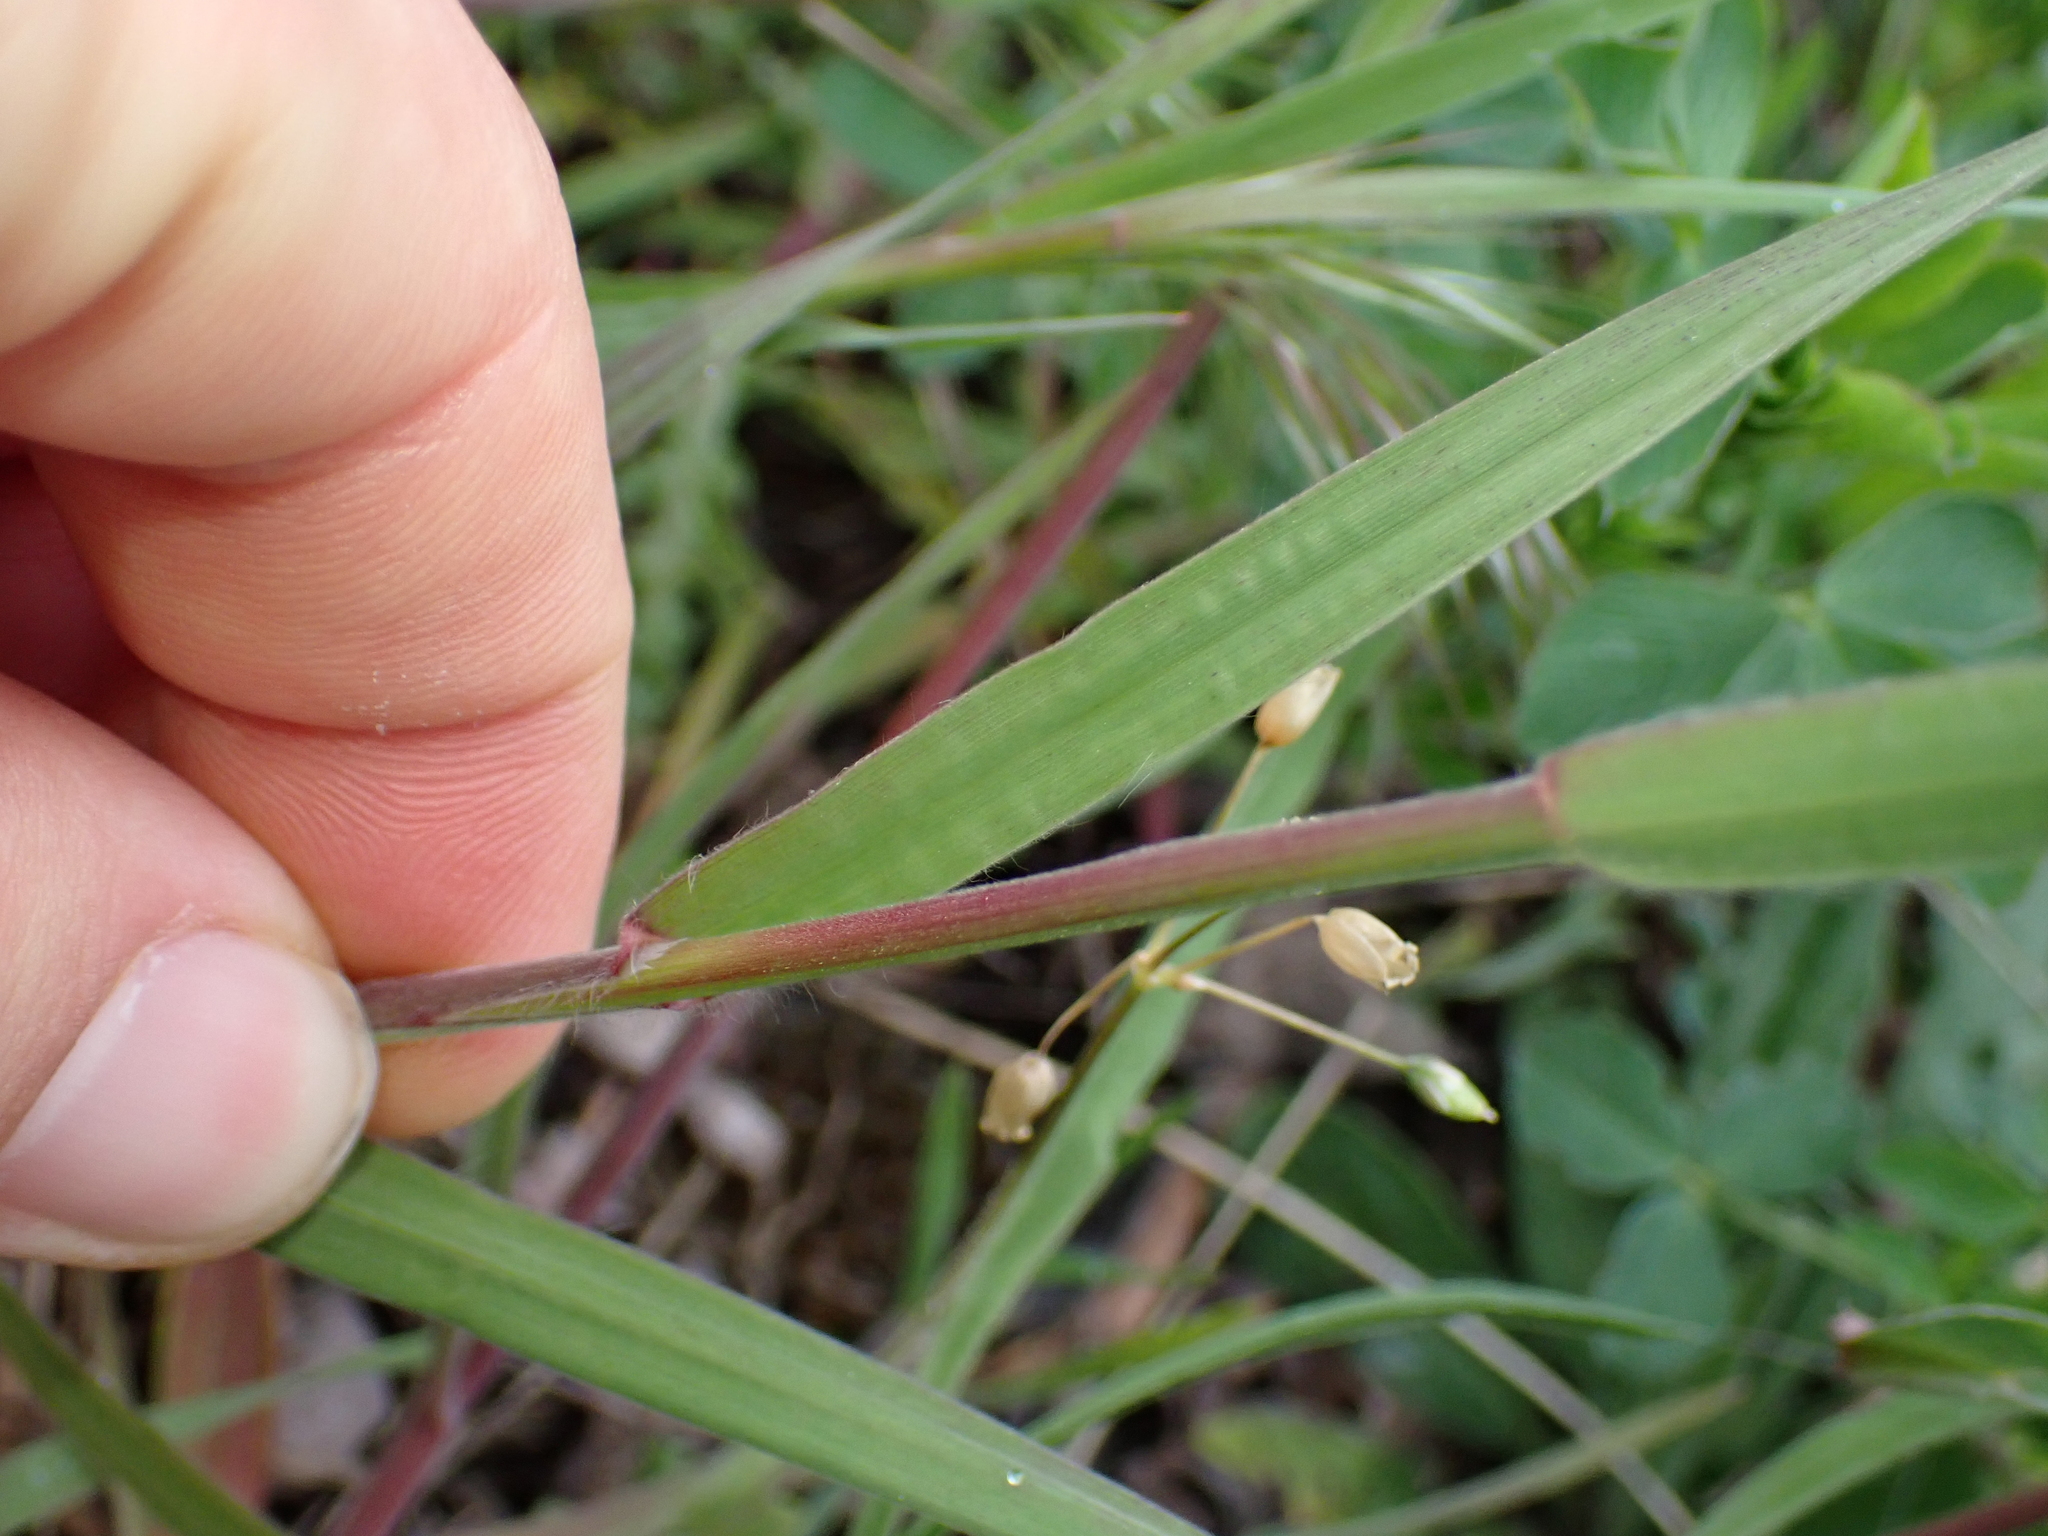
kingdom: Plantae
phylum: Tracheophyta
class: Liliopsida
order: Poales
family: Poaceae
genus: Bromus
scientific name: Bromus tectorum
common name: Cheatgrass
